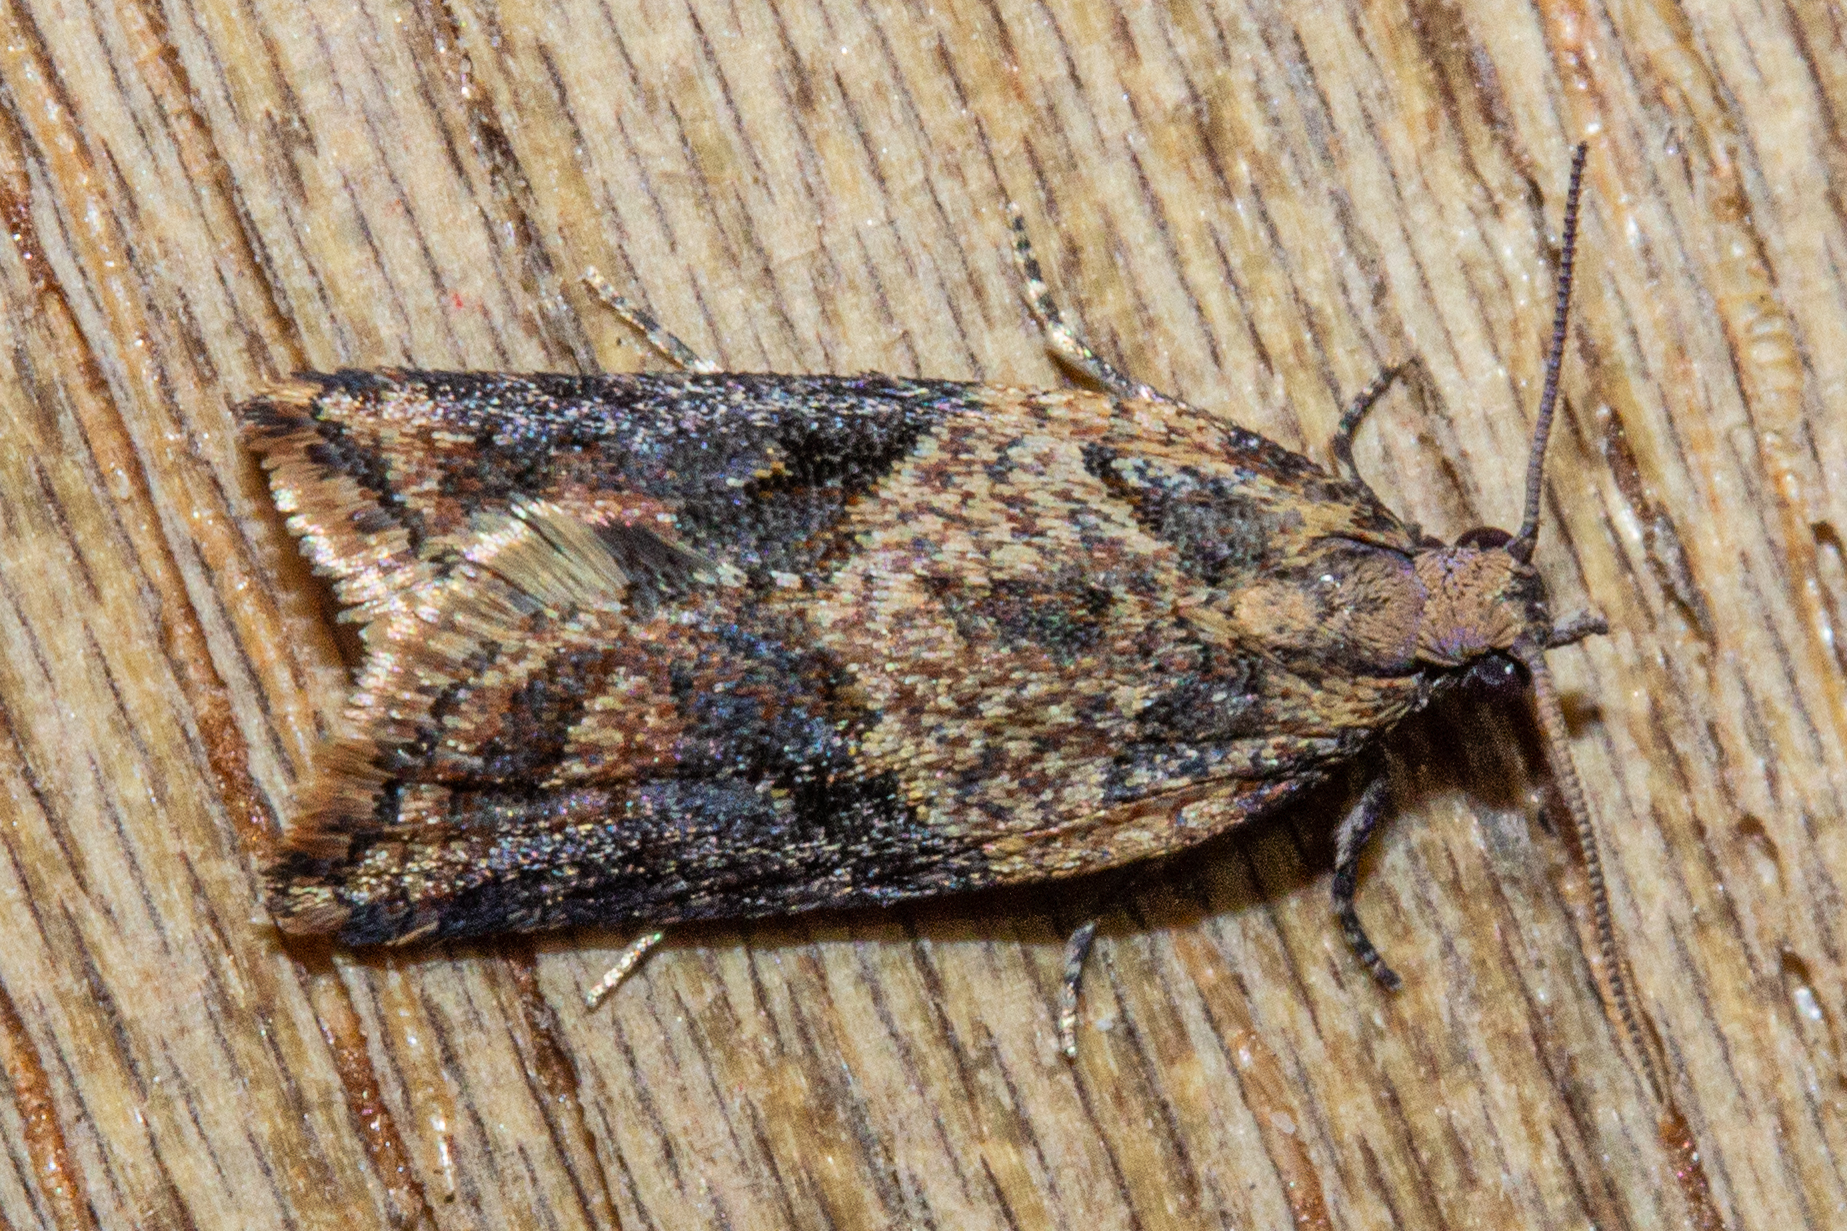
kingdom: Animalia
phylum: Arthropoda
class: Insecta
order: Lepidoptera
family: Tortricidae
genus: Capua
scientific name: Capua semiferana
